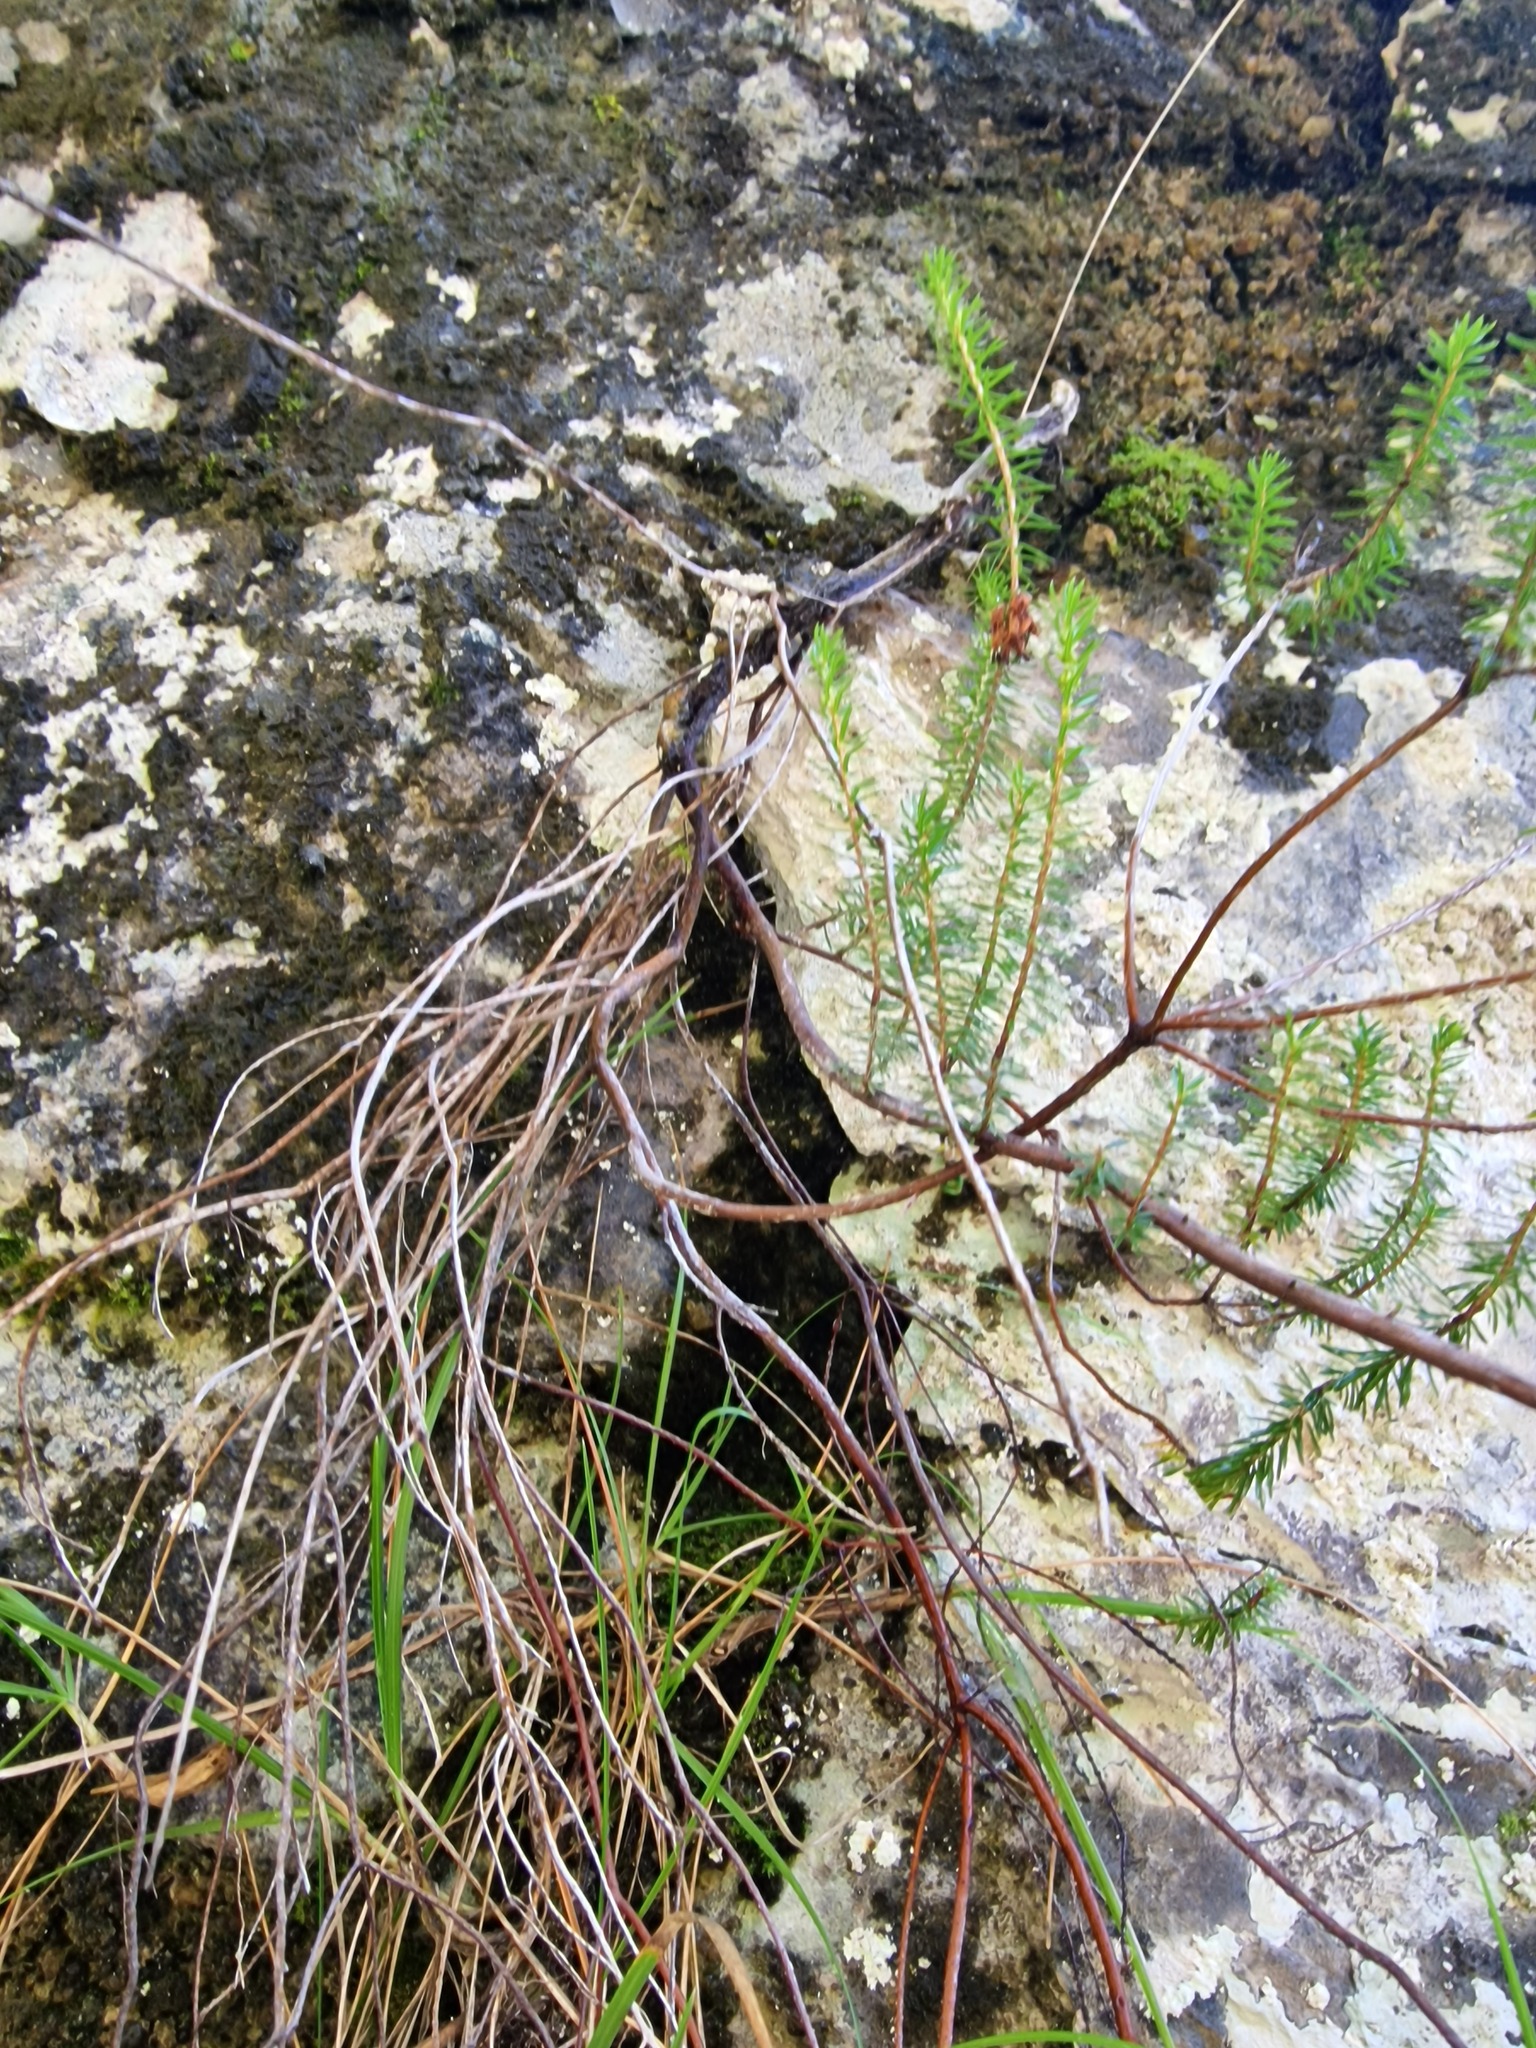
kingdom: Plantae
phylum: Tracheophyta
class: Magnoliopsida
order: Ericales
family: Ericaceae
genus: Erica
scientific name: Erica carnea
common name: Winter heath
